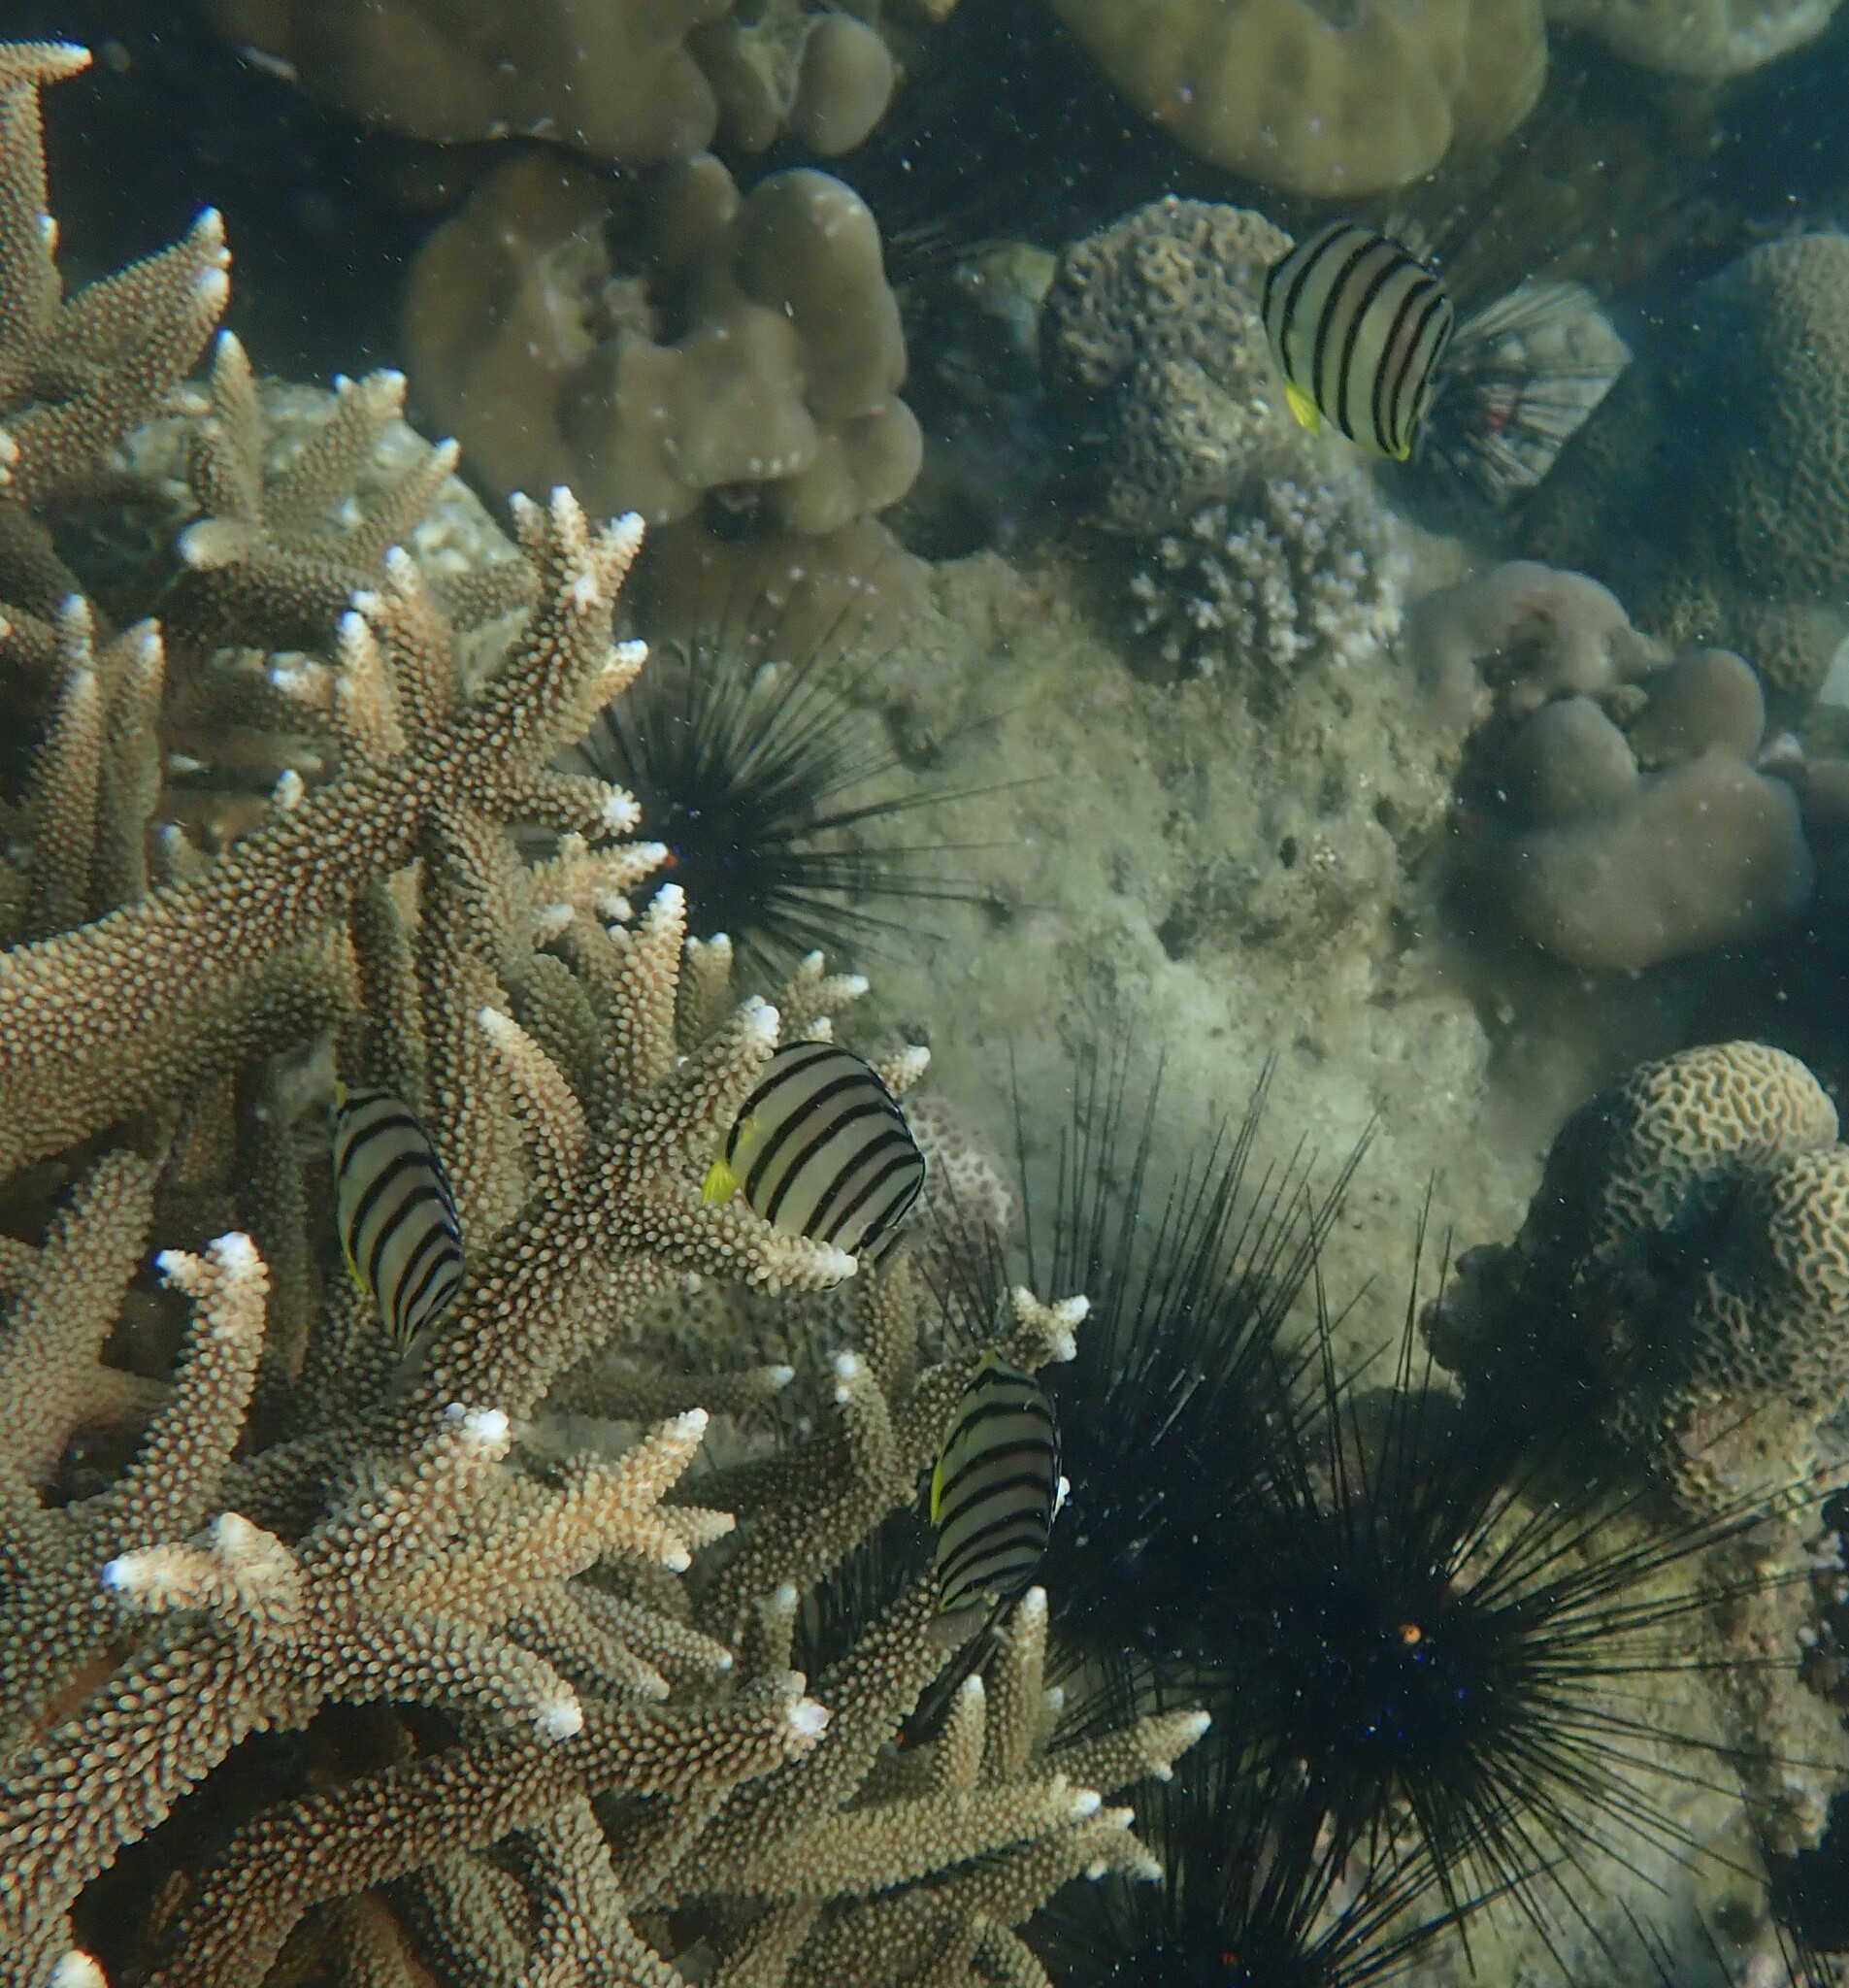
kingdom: Animalia
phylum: Chordata
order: Perciformes
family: Chaetodontidae
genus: Chaetodon
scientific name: Chaetodon octofasciatus
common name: Eightband butterflyfish
